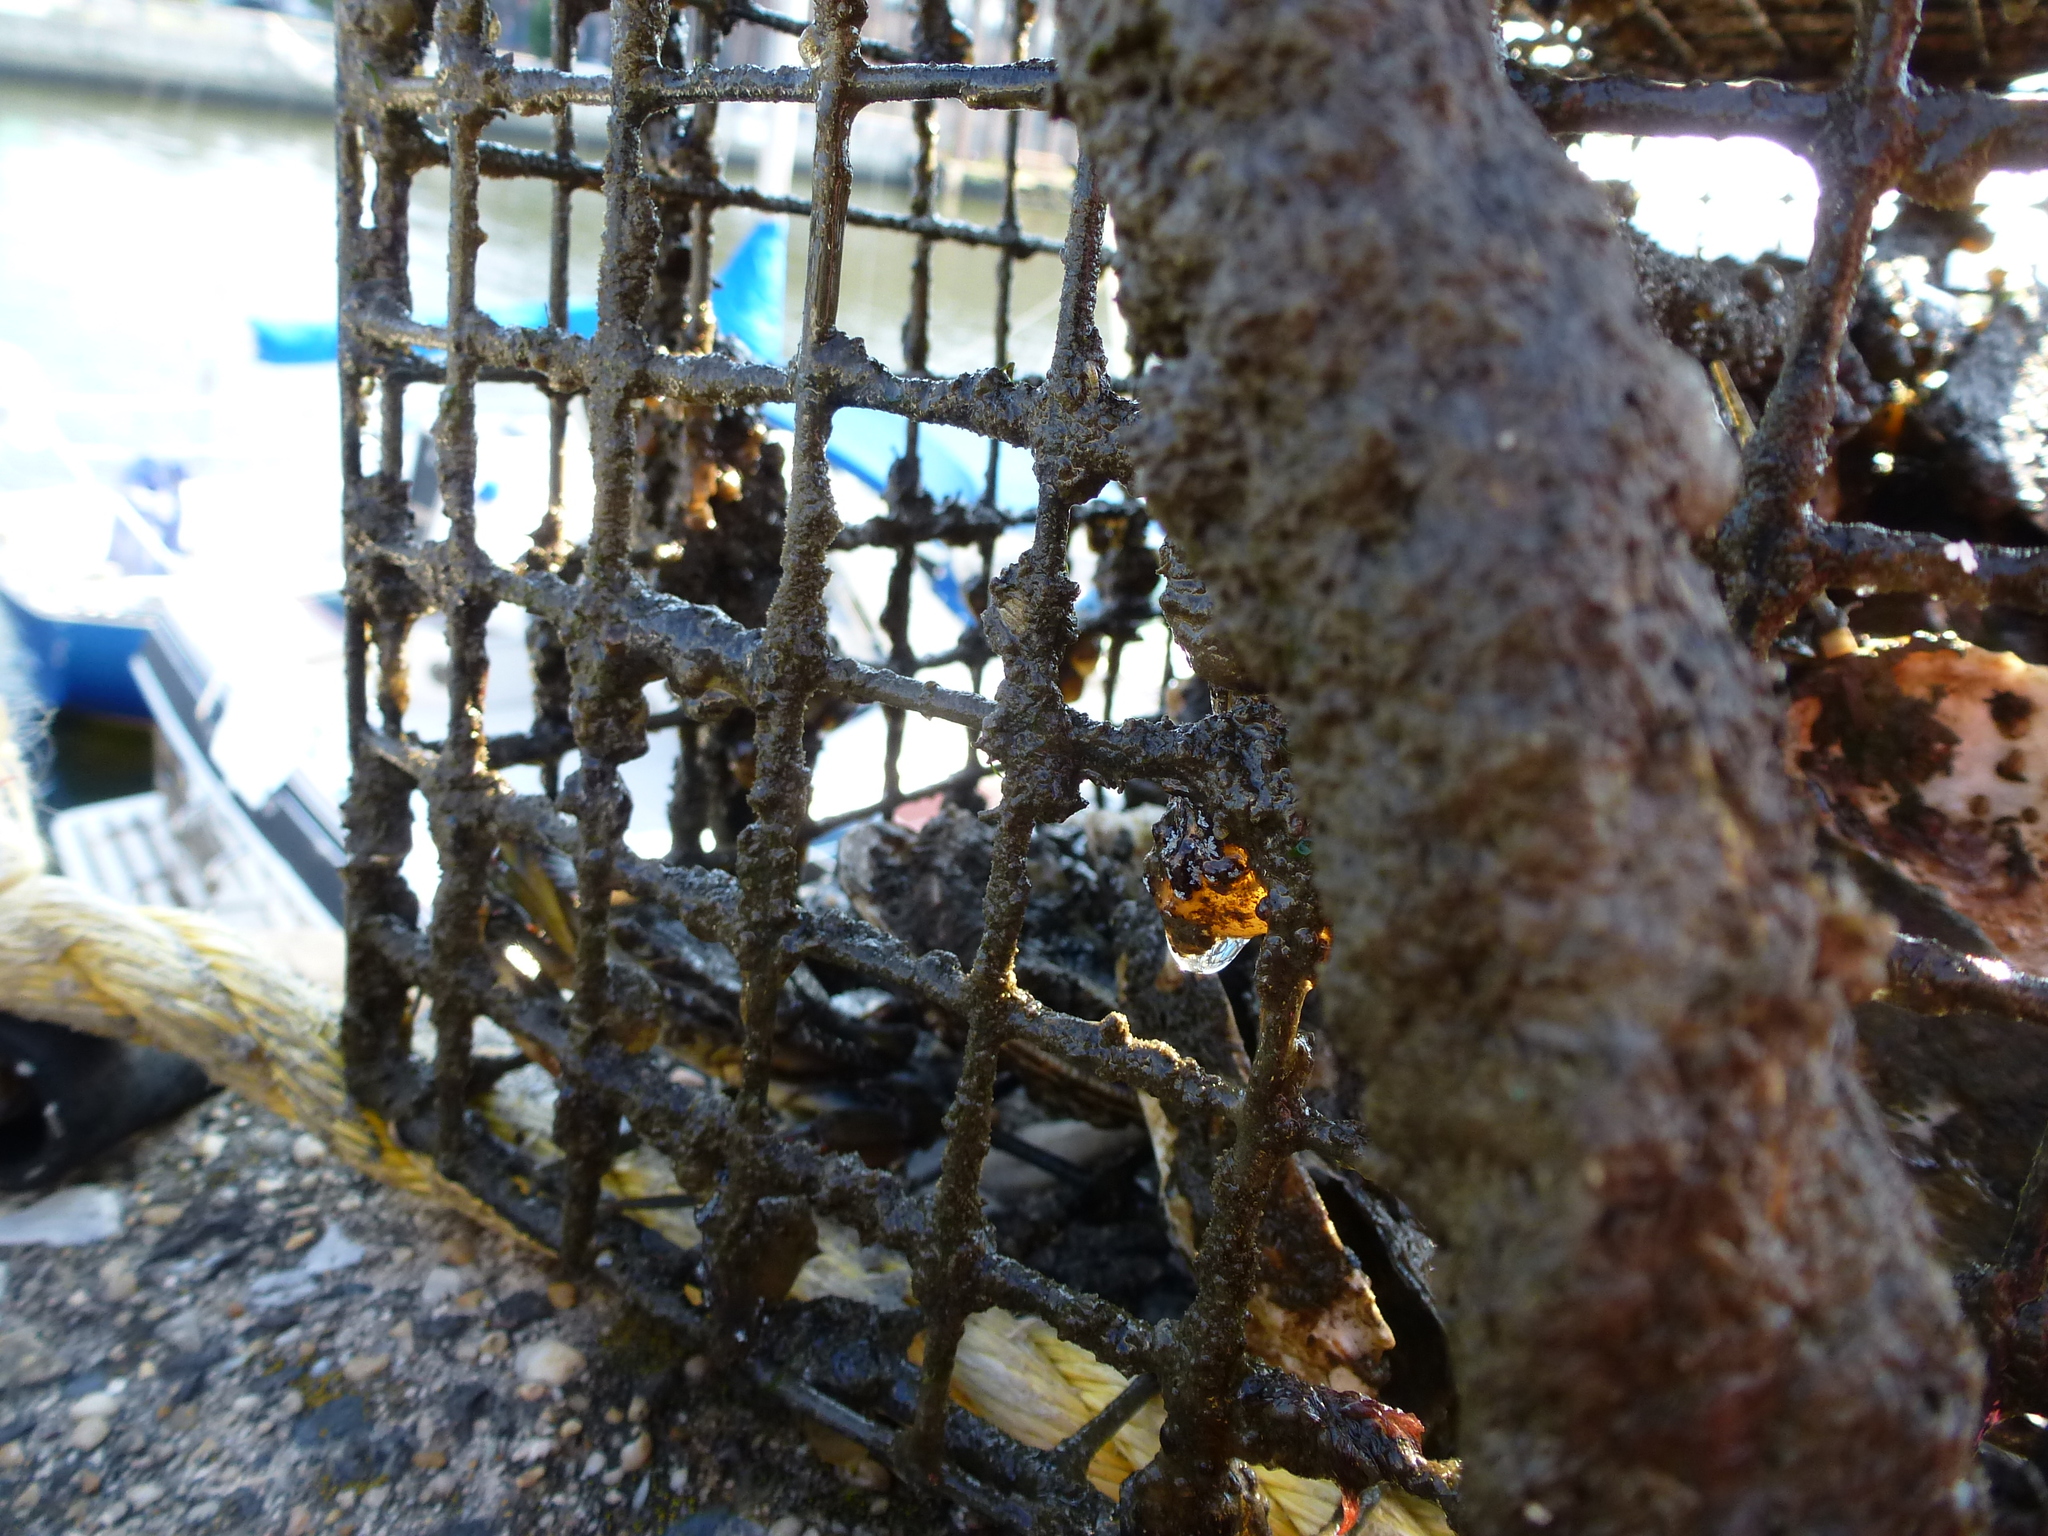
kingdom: Animalia
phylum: Arthropoda
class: Malacostraca
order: Decapoda
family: Portunidae
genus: Callinectes
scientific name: Callinectes sapidus
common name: Blue crab
